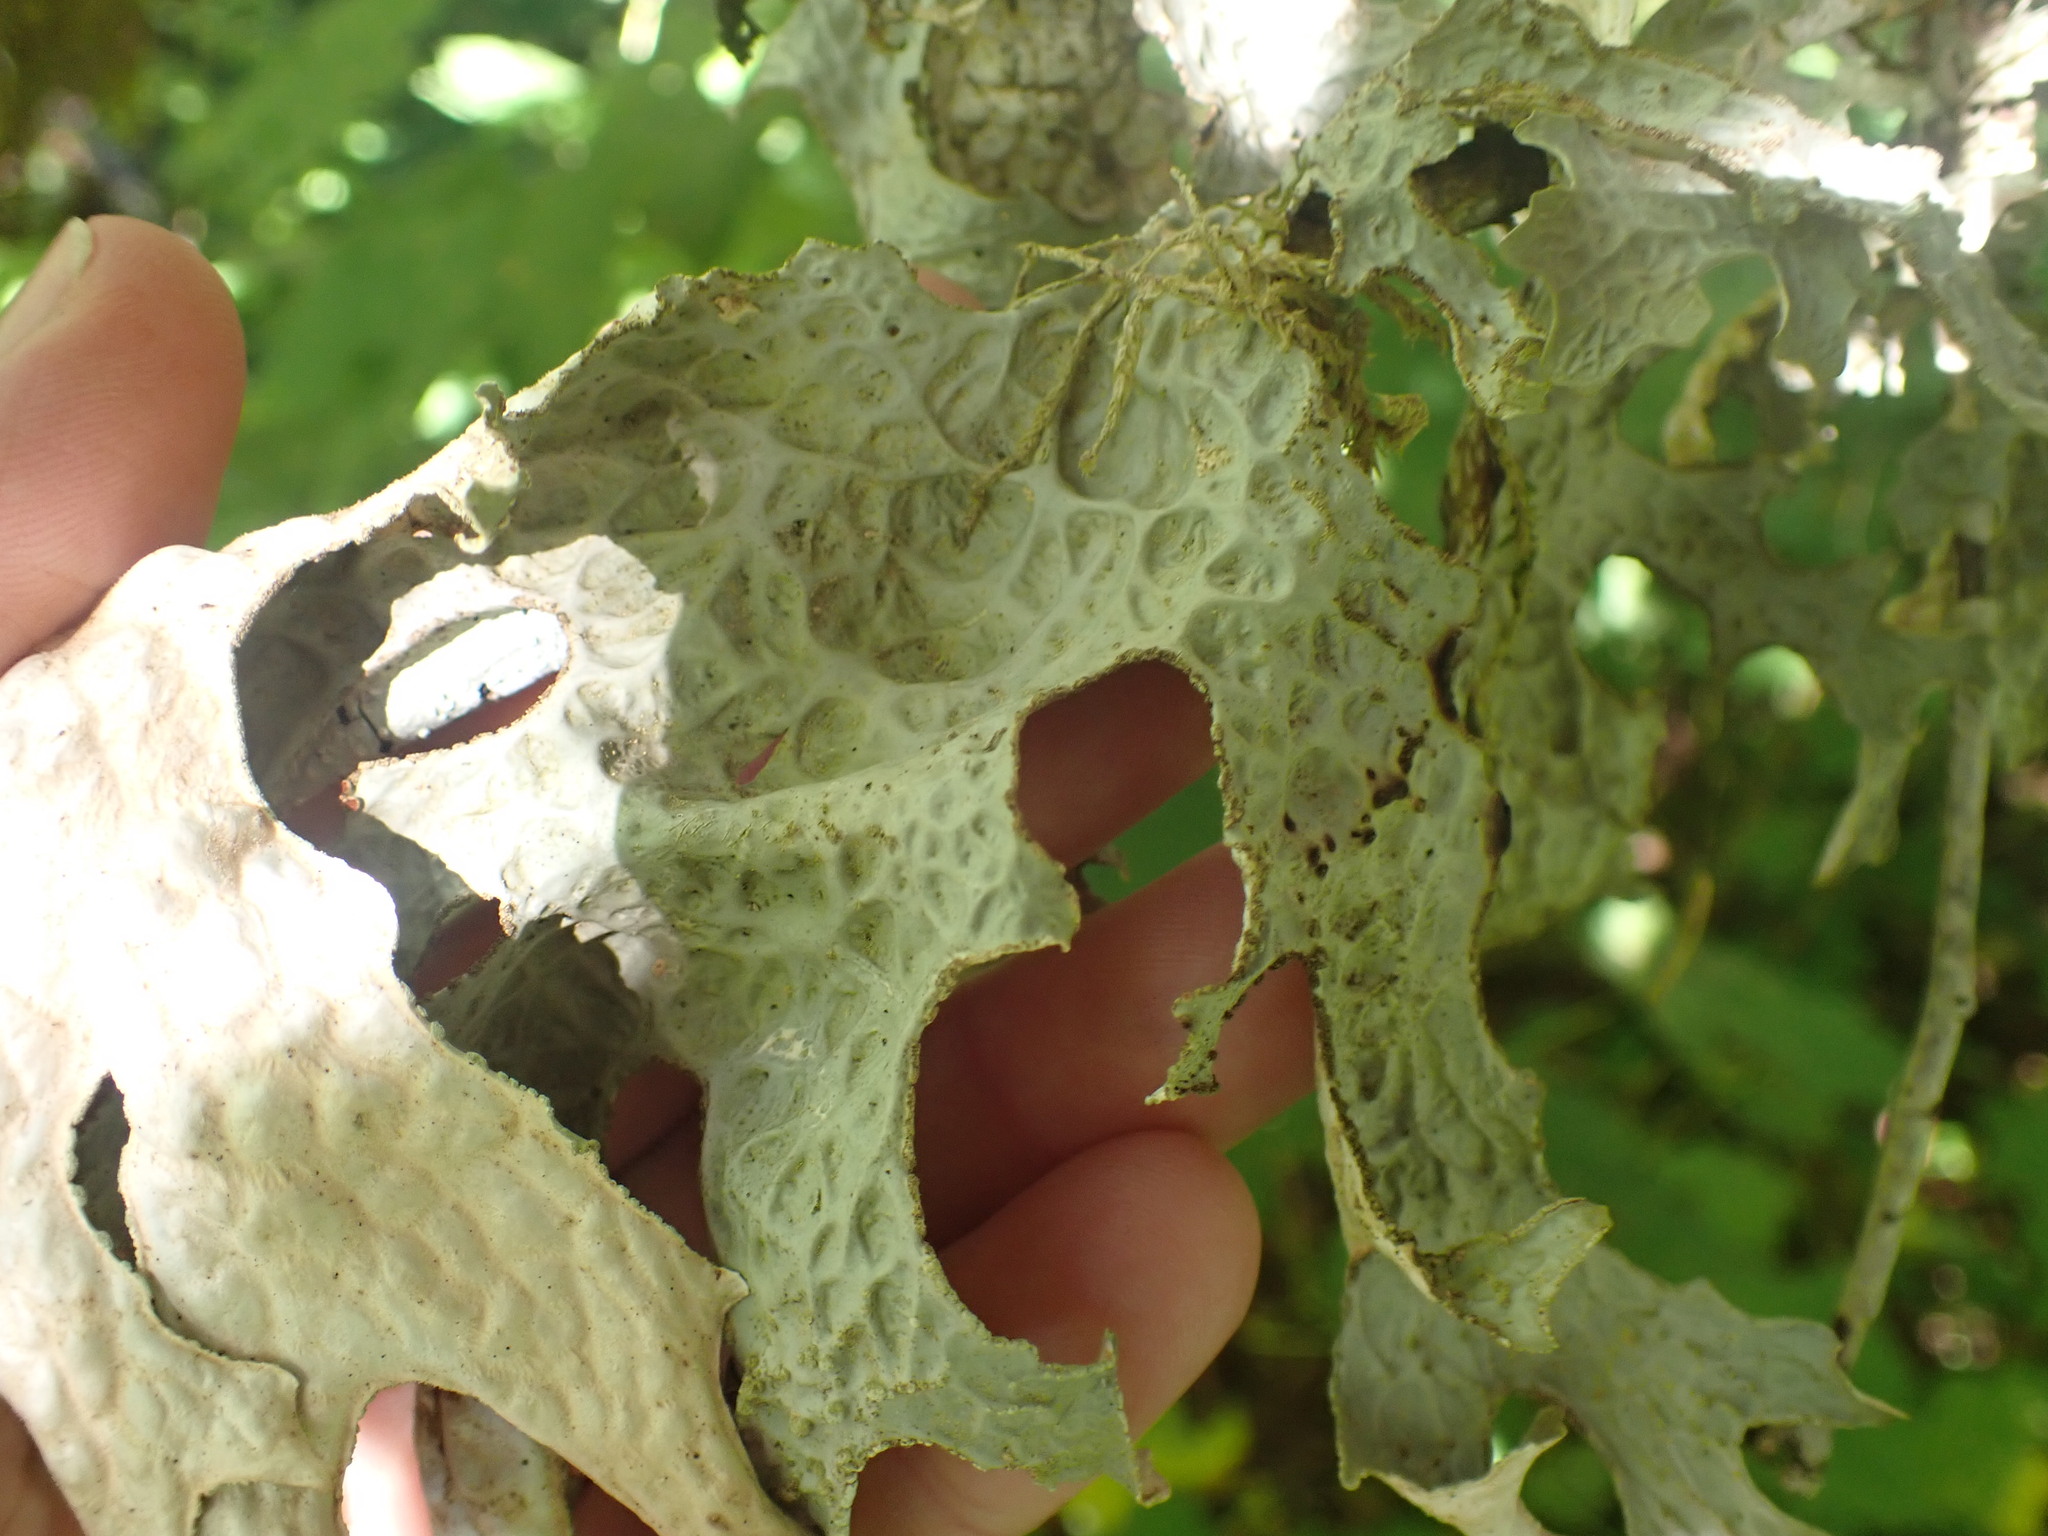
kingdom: Fungi
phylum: Ascomycota
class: Lecanoromycetes
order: Peltigerales
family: Lobariaceae
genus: Lobaria
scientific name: Lobaria pulmonaria
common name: Lungwort
